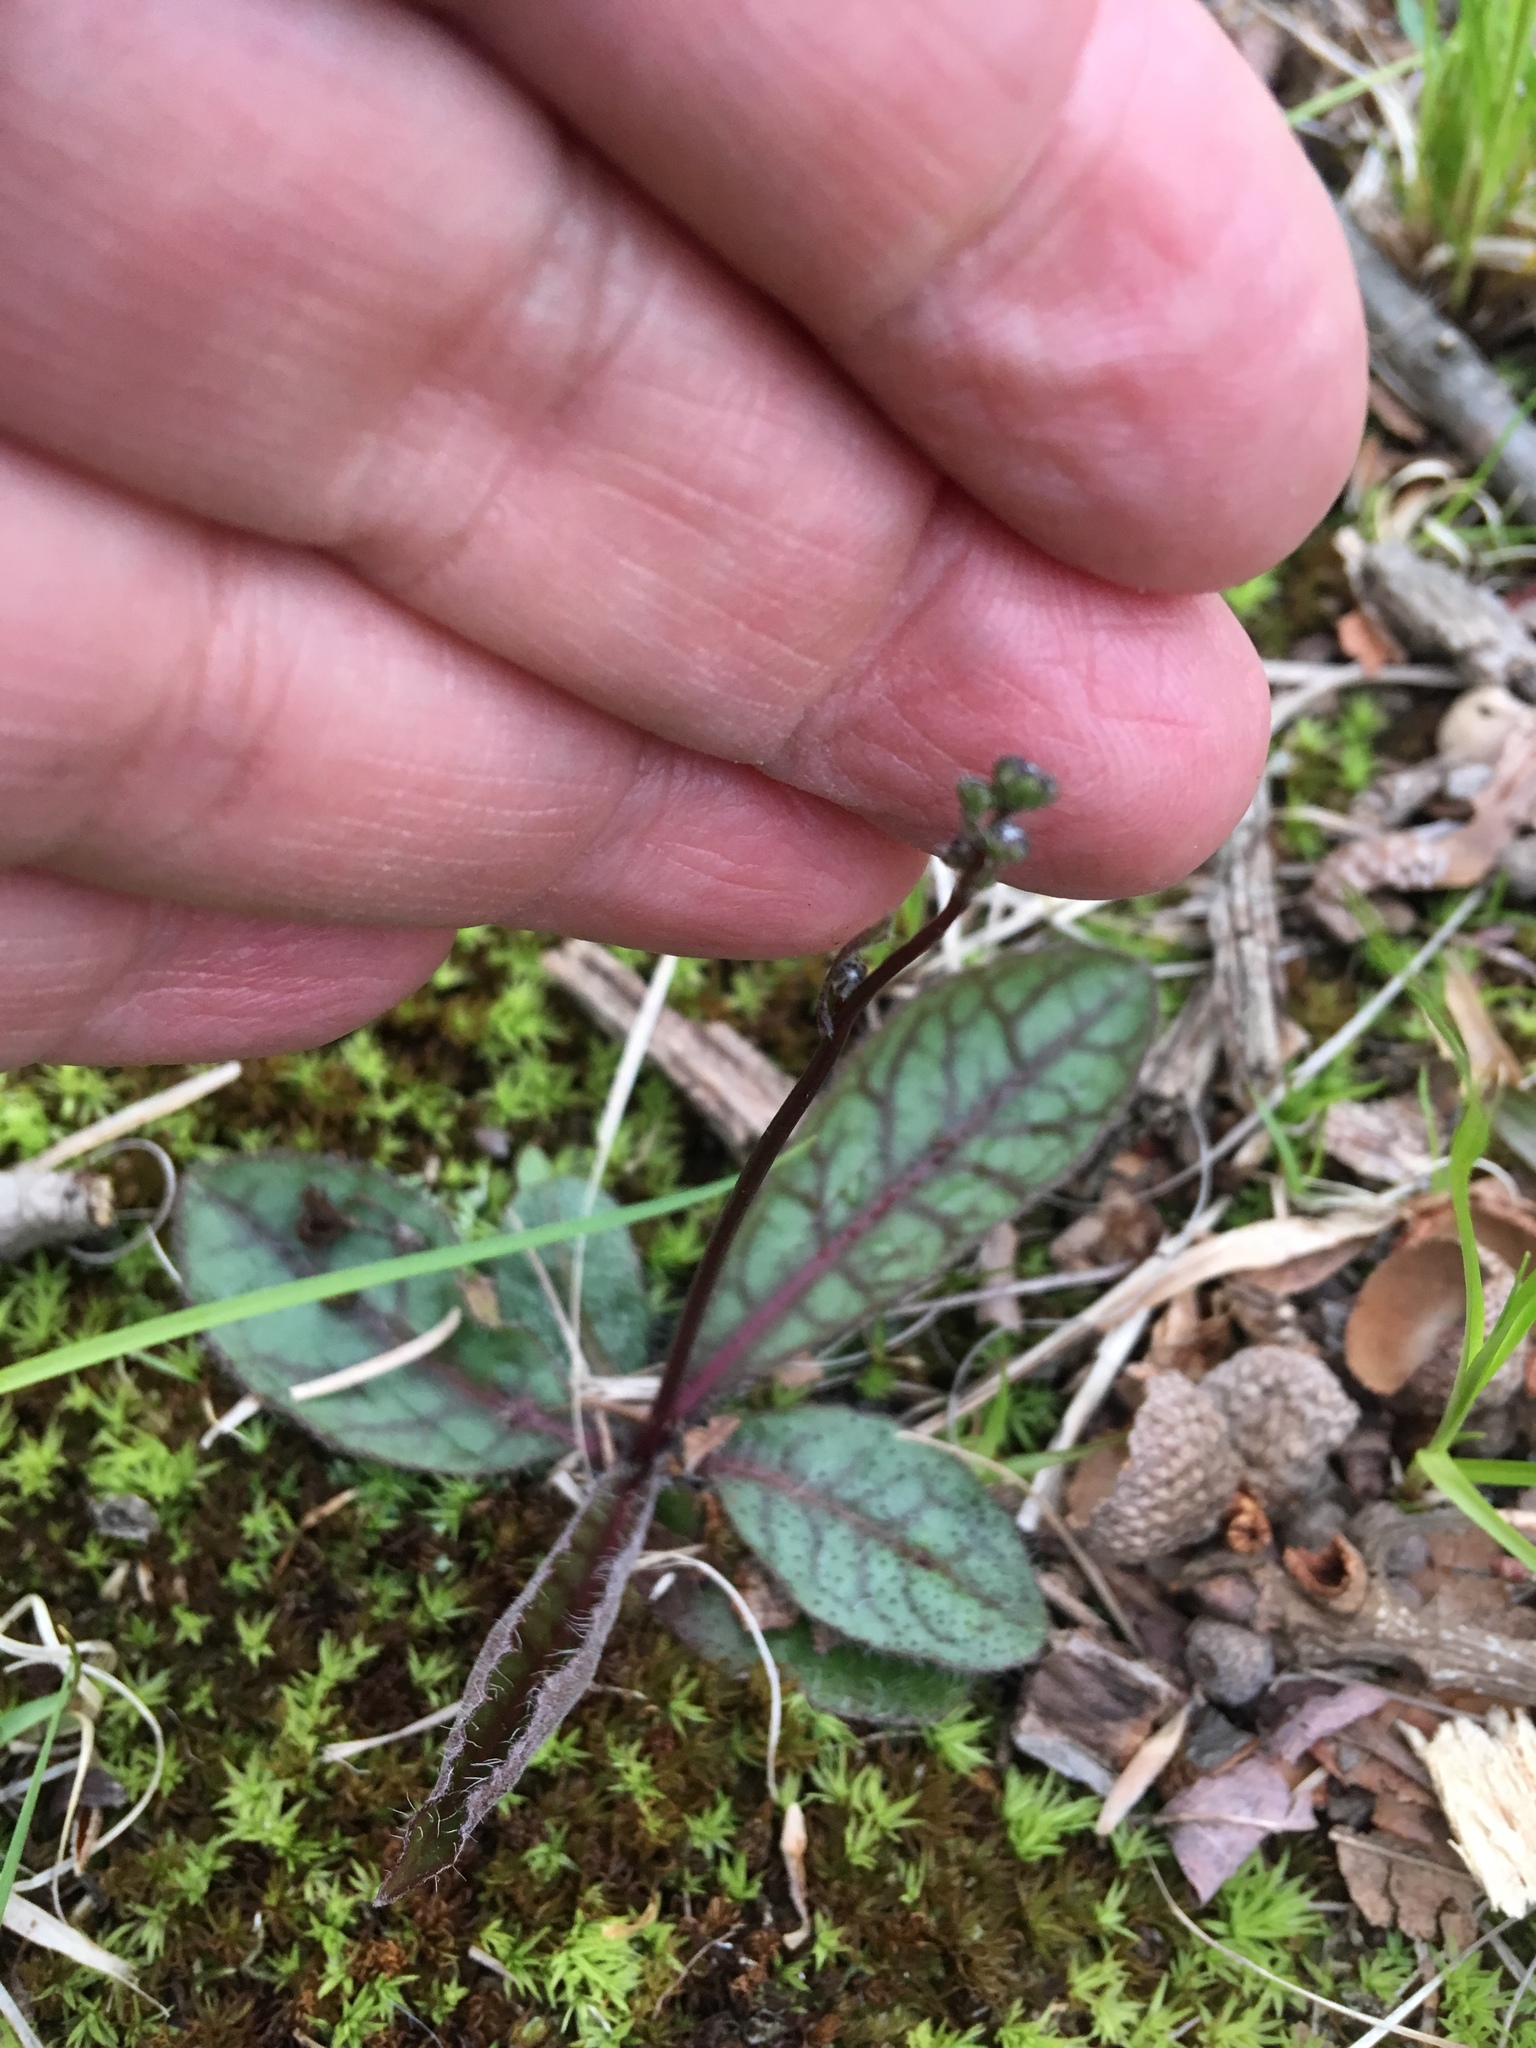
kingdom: Plantae
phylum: Tracheophyta
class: Magnoliopsida
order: Asterales
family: Asteraceae
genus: Hieracium
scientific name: Hieracium venosum
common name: Rattlesnake hawkweed
